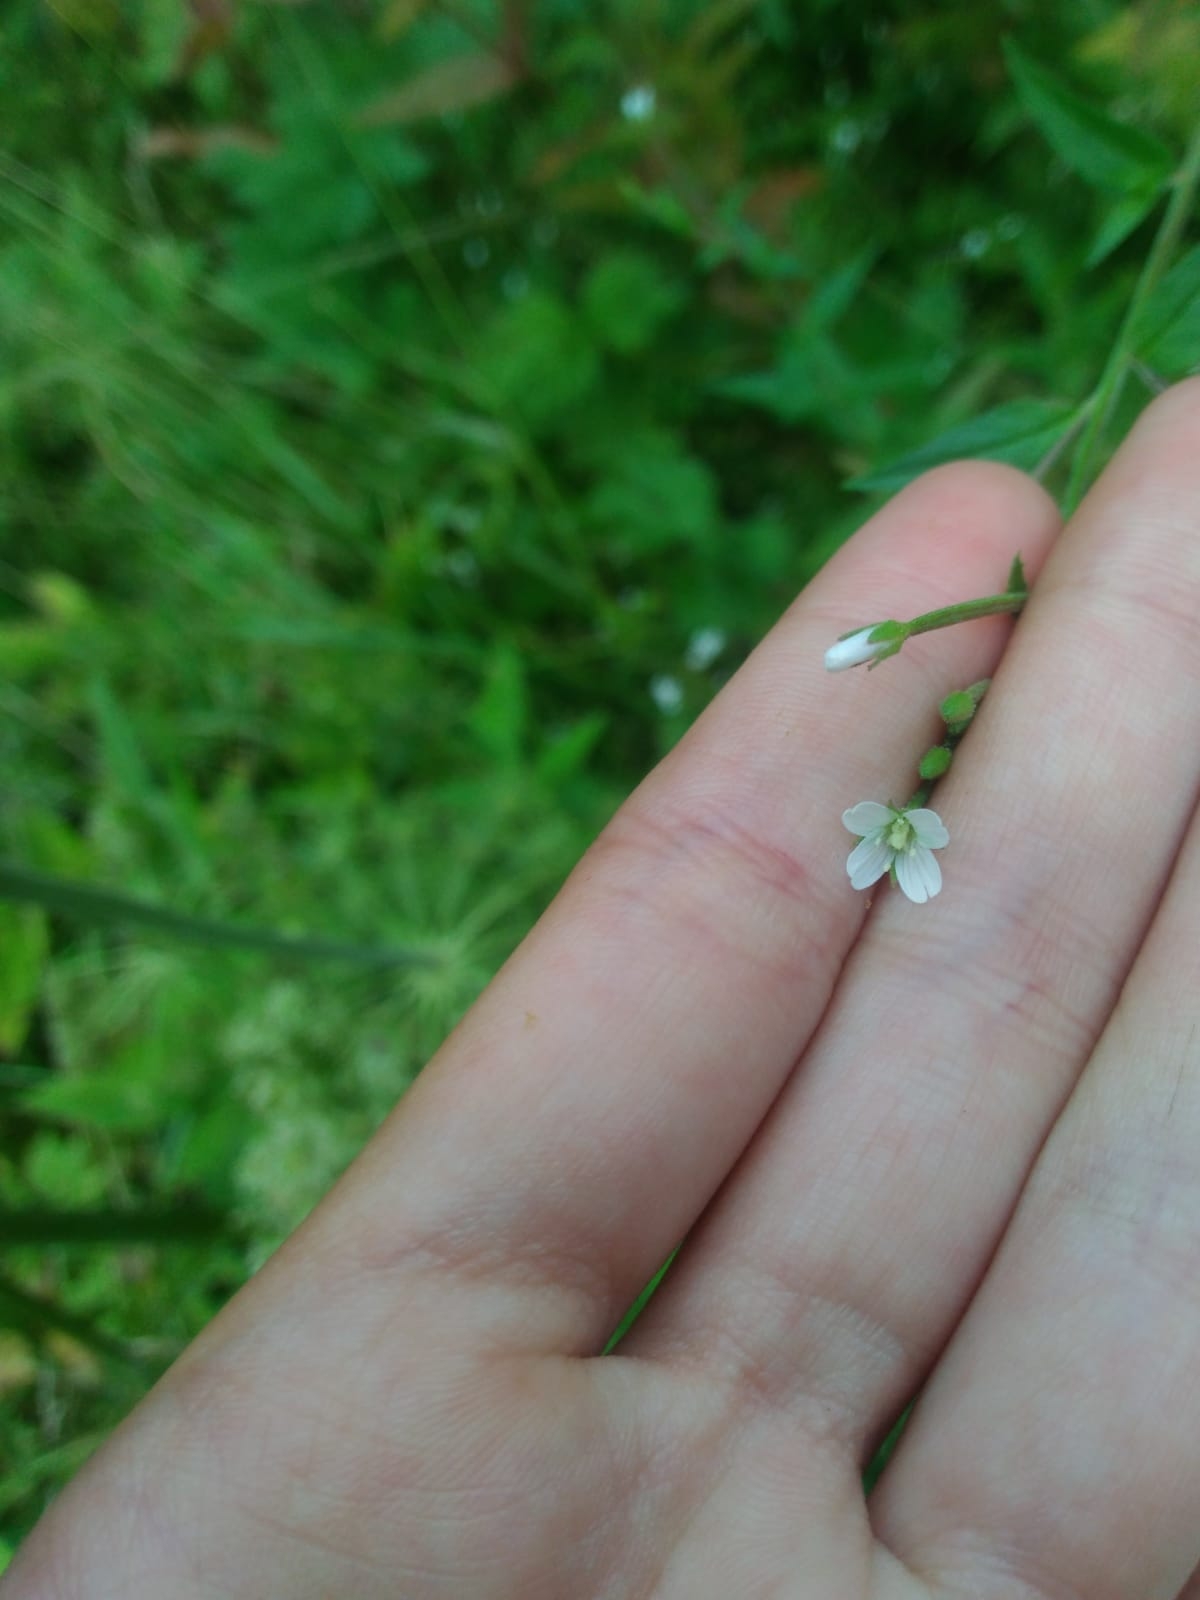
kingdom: Plantae
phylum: Tracheophyta
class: Magnoliopsida
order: Myrtales
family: Onagraceae
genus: Epilobium
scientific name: Epilobium pseudorubescens
